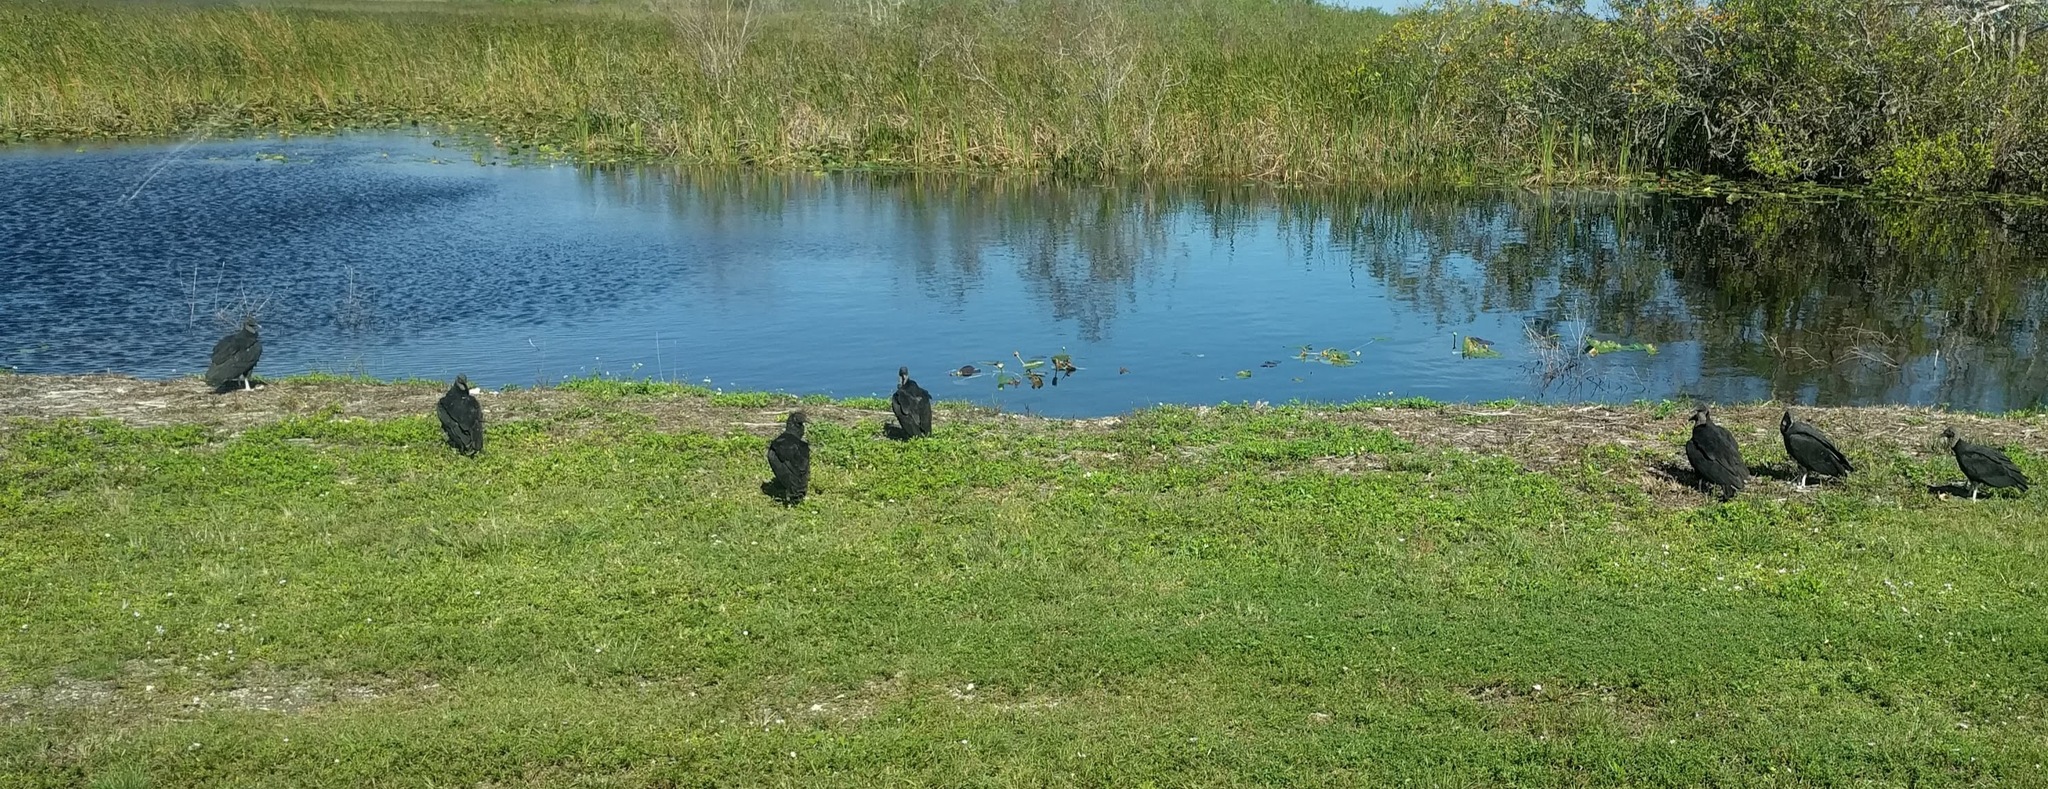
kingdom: Animalia
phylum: Chordata
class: Aves
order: Accipitriformes
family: Cathartidae
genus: Coragyps
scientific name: Coragyps atratus
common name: Black vulture
